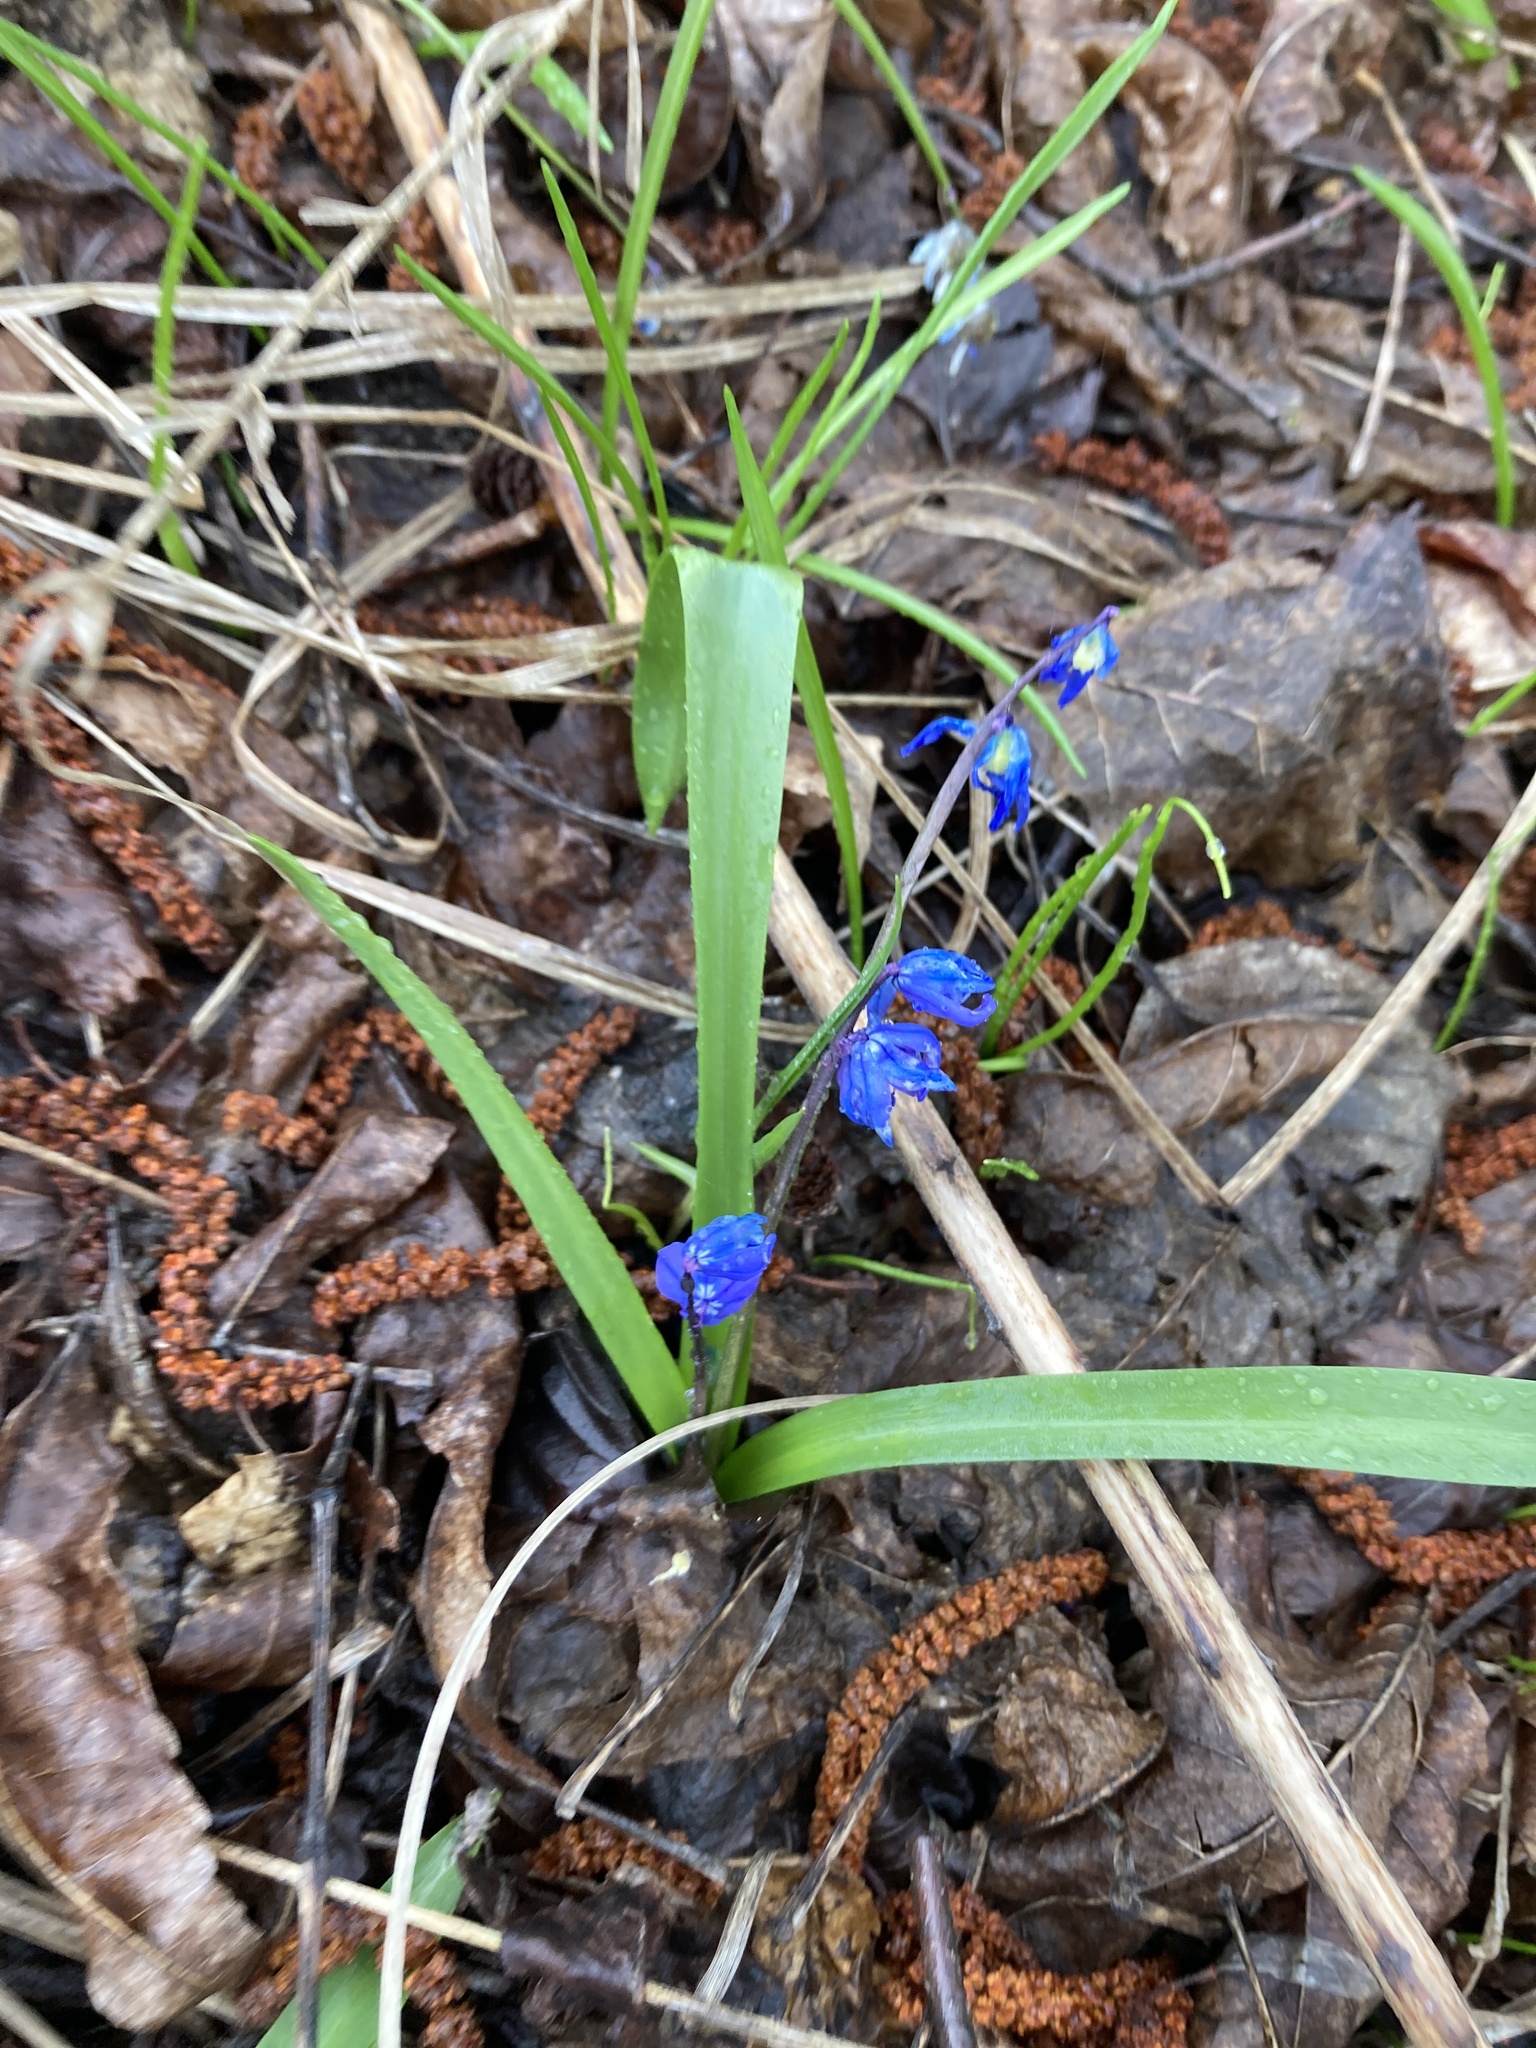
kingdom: Plantae
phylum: Tracheophyta
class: Liliopsida
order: Asparagales
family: Asparagaceae
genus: Scilla
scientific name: Scilla siberica
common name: Siberian squill
